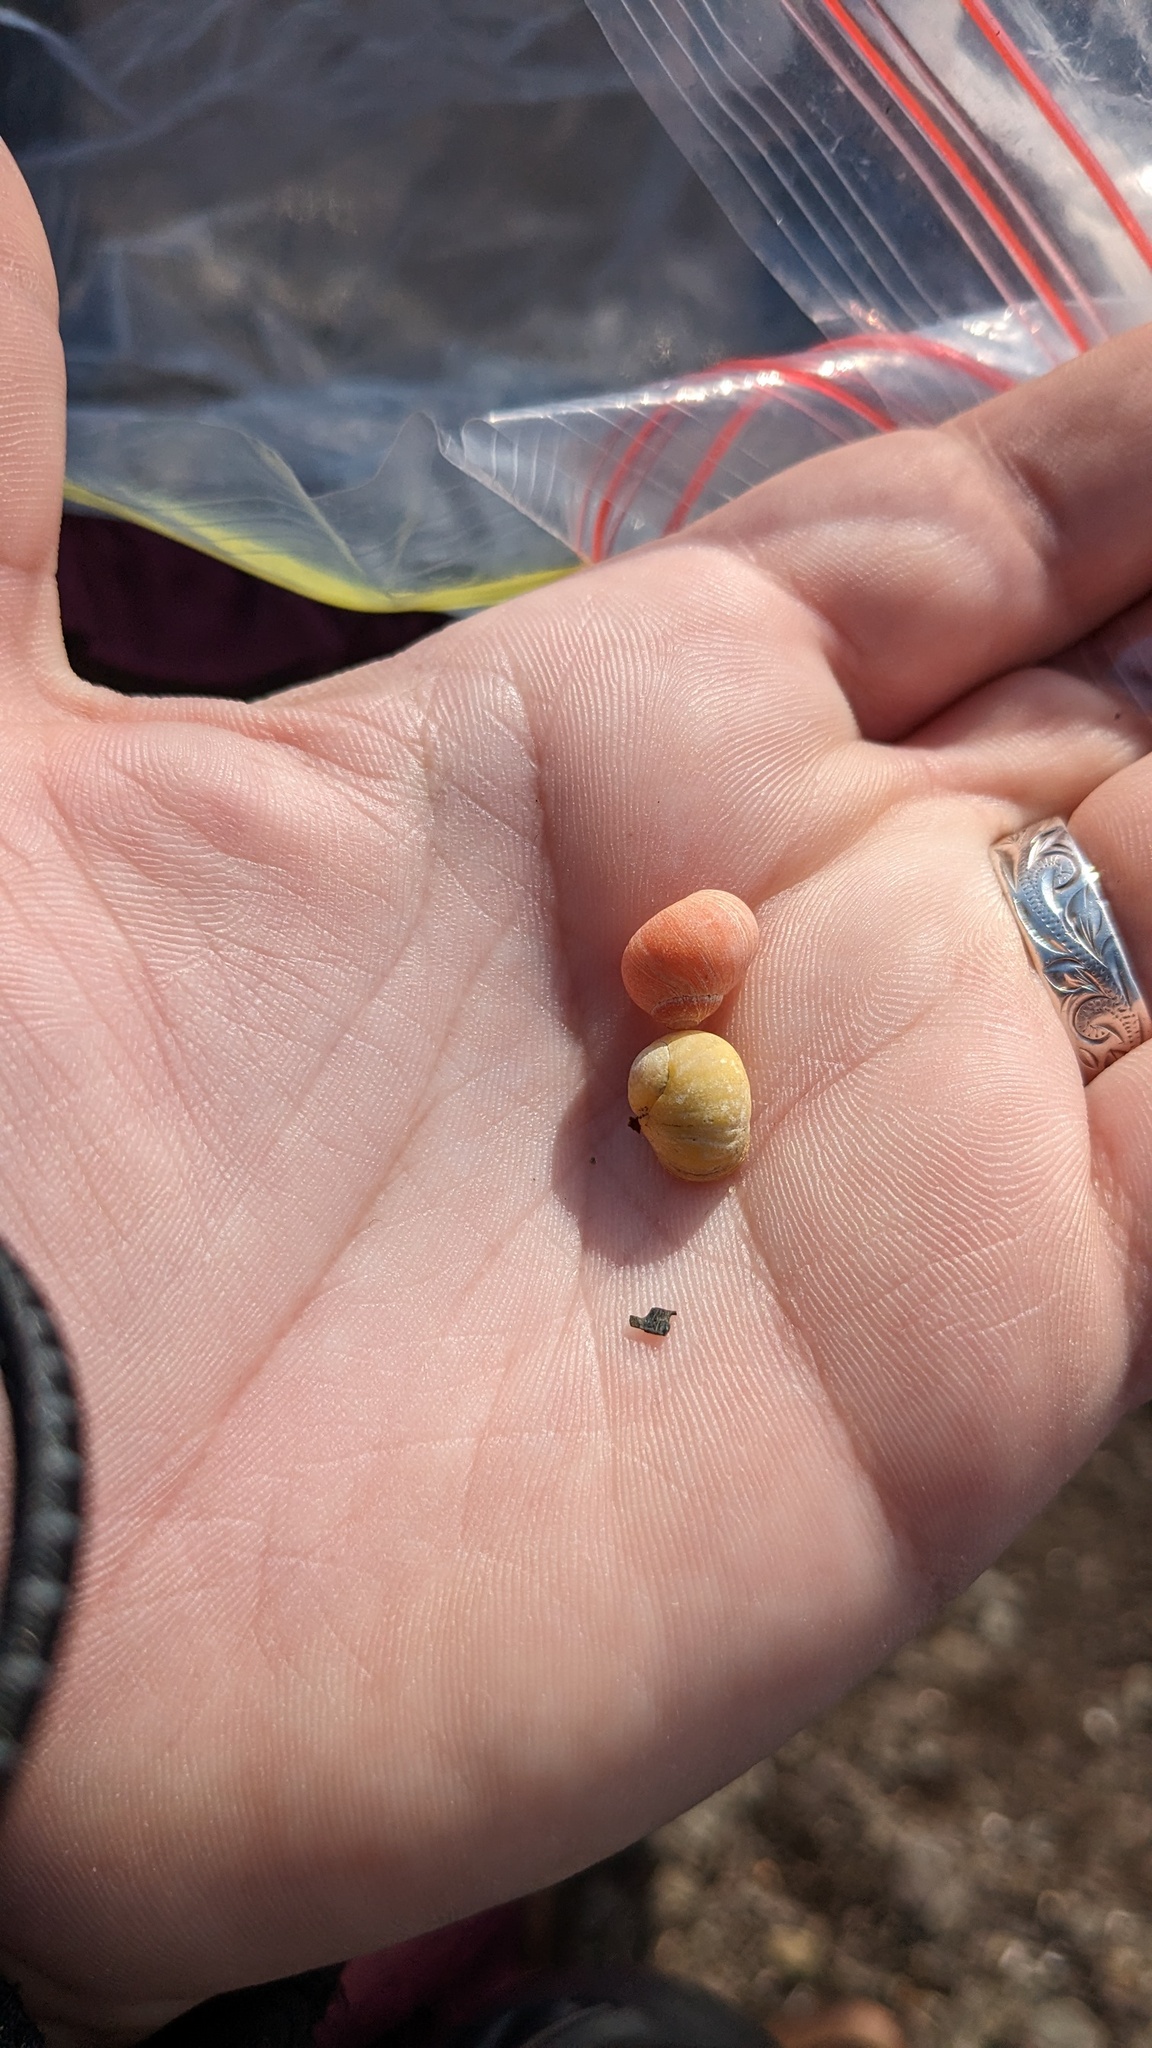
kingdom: Animalia
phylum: Mollusca
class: Gastropoda
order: Littorinimorpha
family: Littorinidae
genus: Littorina
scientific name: Littorina obtusata
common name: Flat periwinkle
